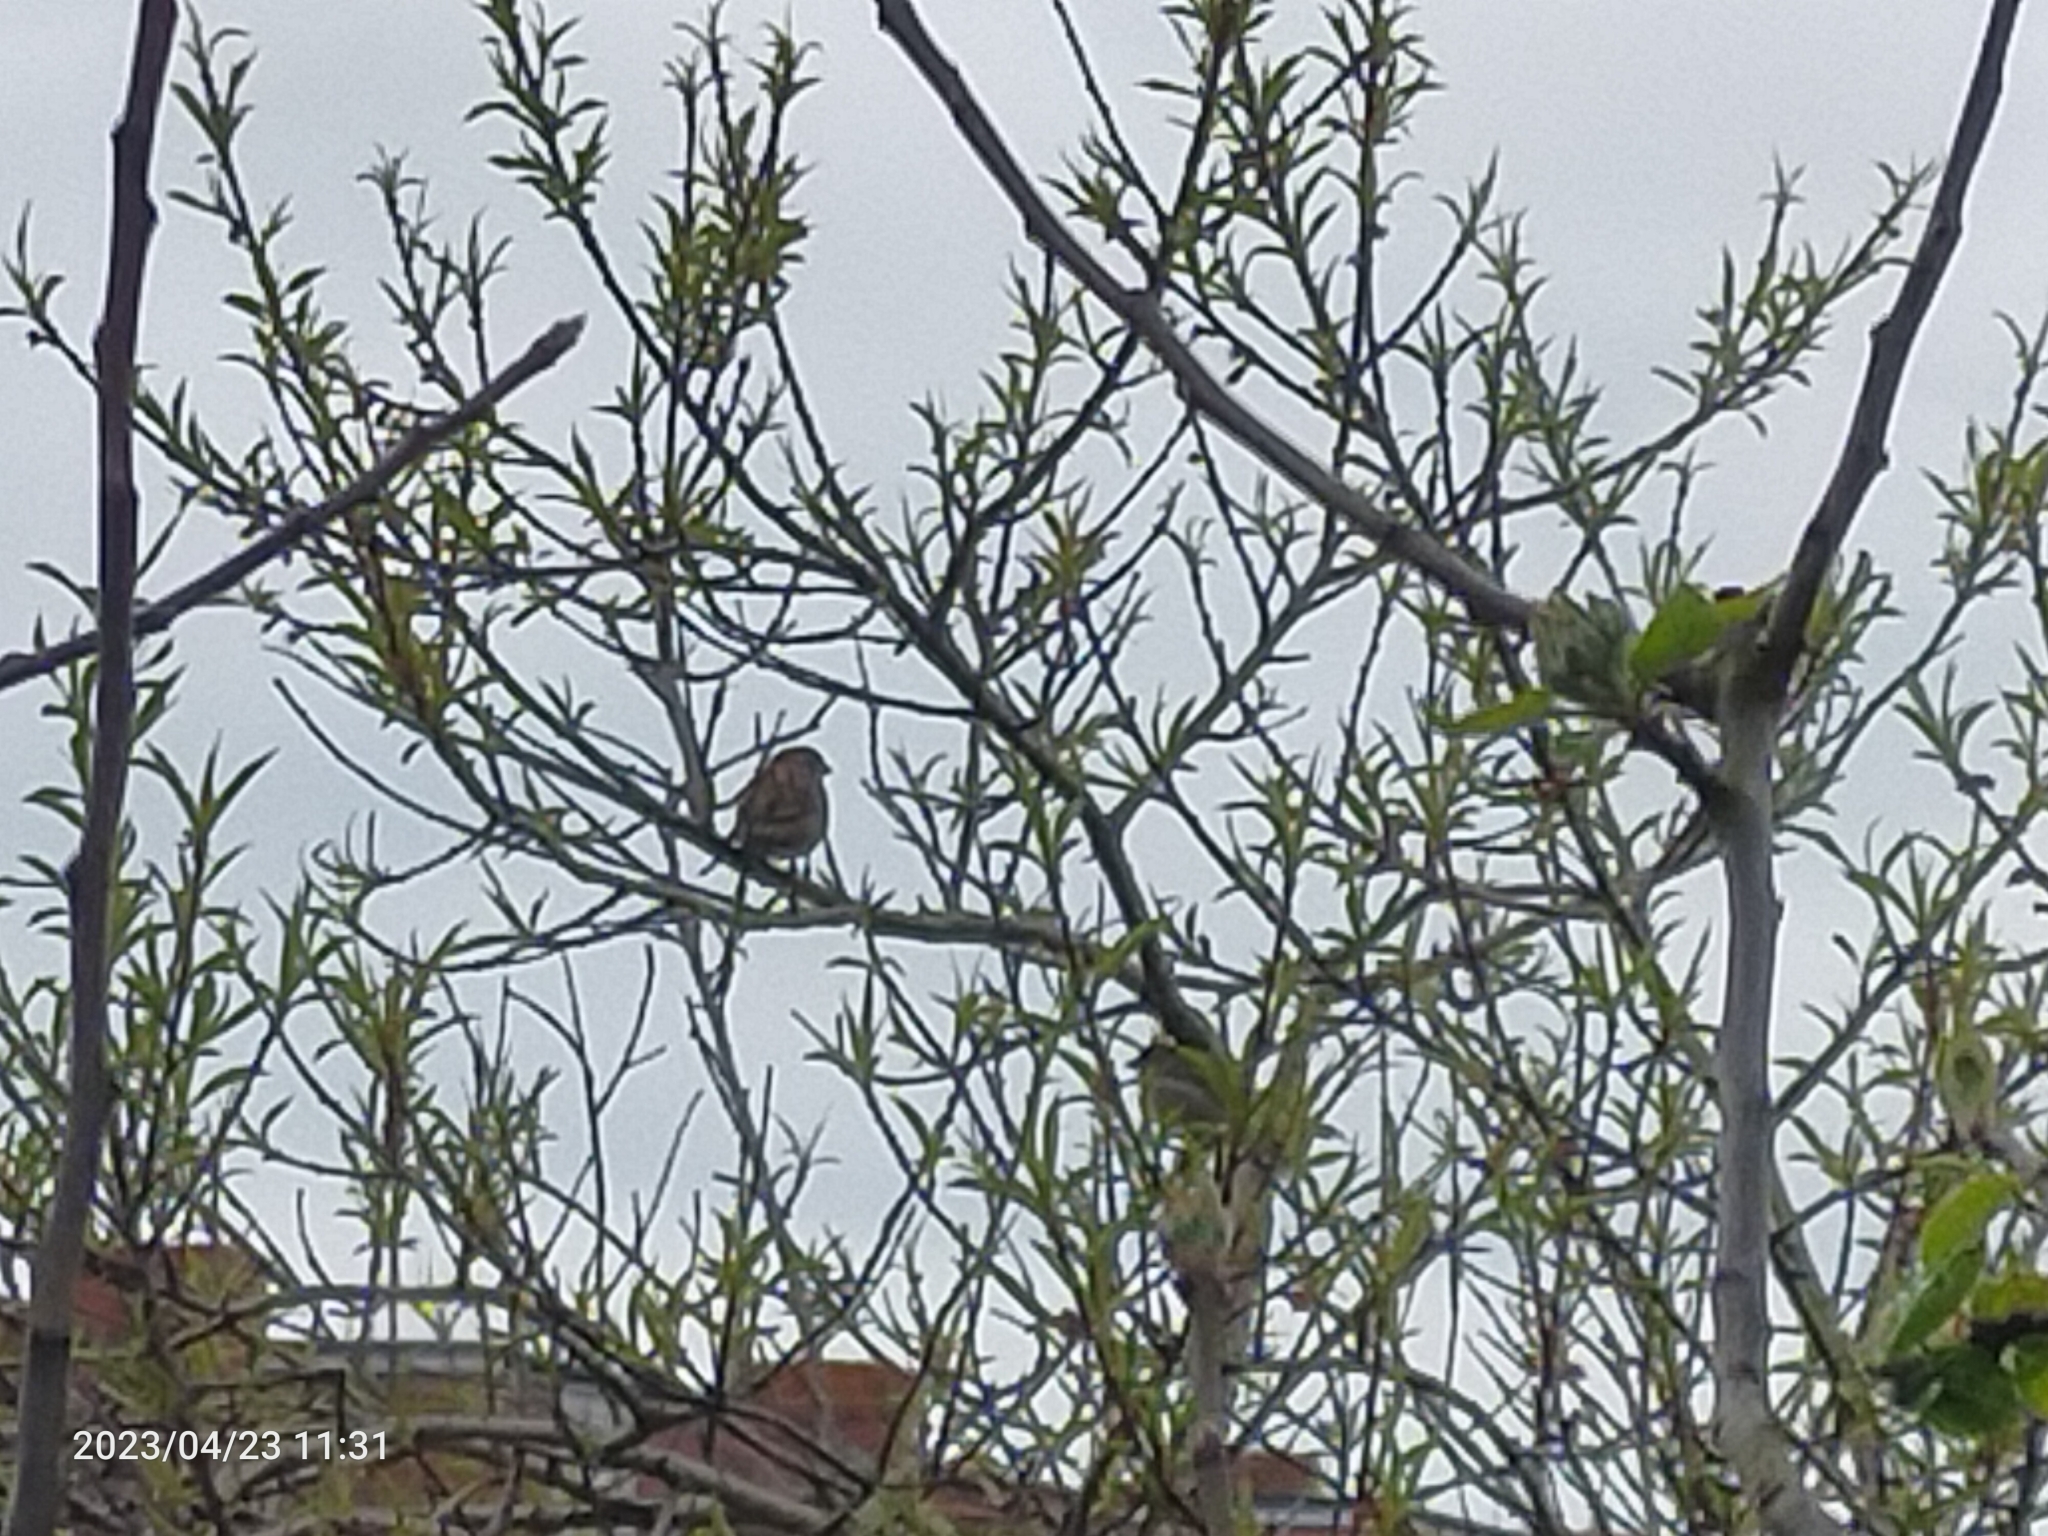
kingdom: Animalia
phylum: Chordata
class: Aves
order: Passeriformes
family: Passeridae
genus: Passer
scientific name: Passer domesticus
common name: House sparrow
